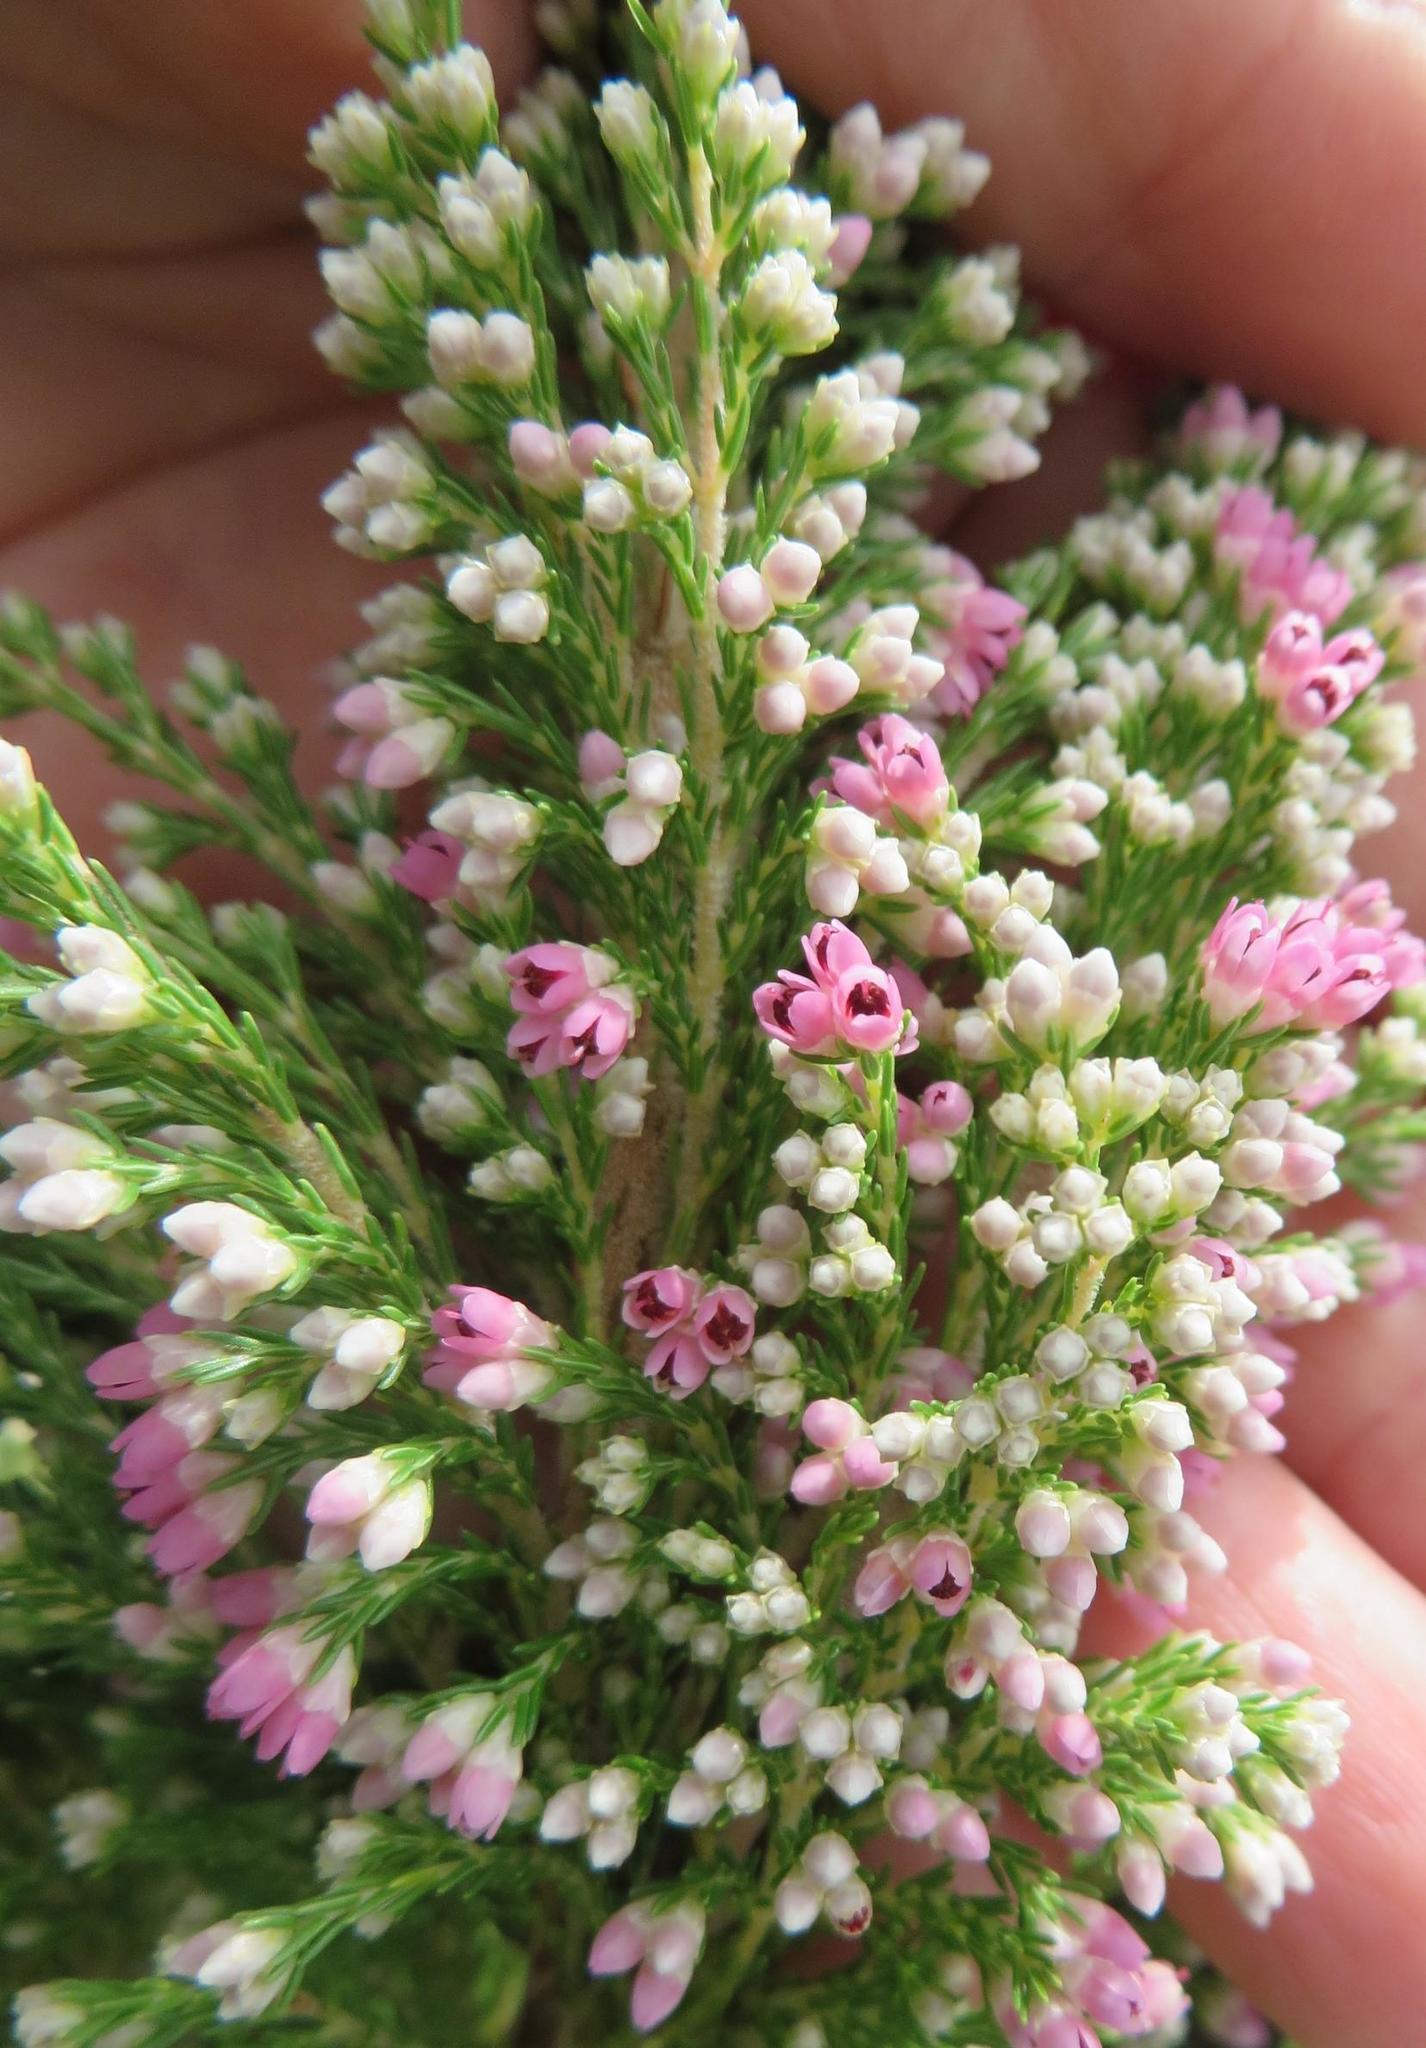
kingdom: Plantae
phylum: Tracheophyta
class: Magnoliopsida
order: Ericales
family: Ericaceae
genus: Erica
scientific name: Erica jacksoniana
